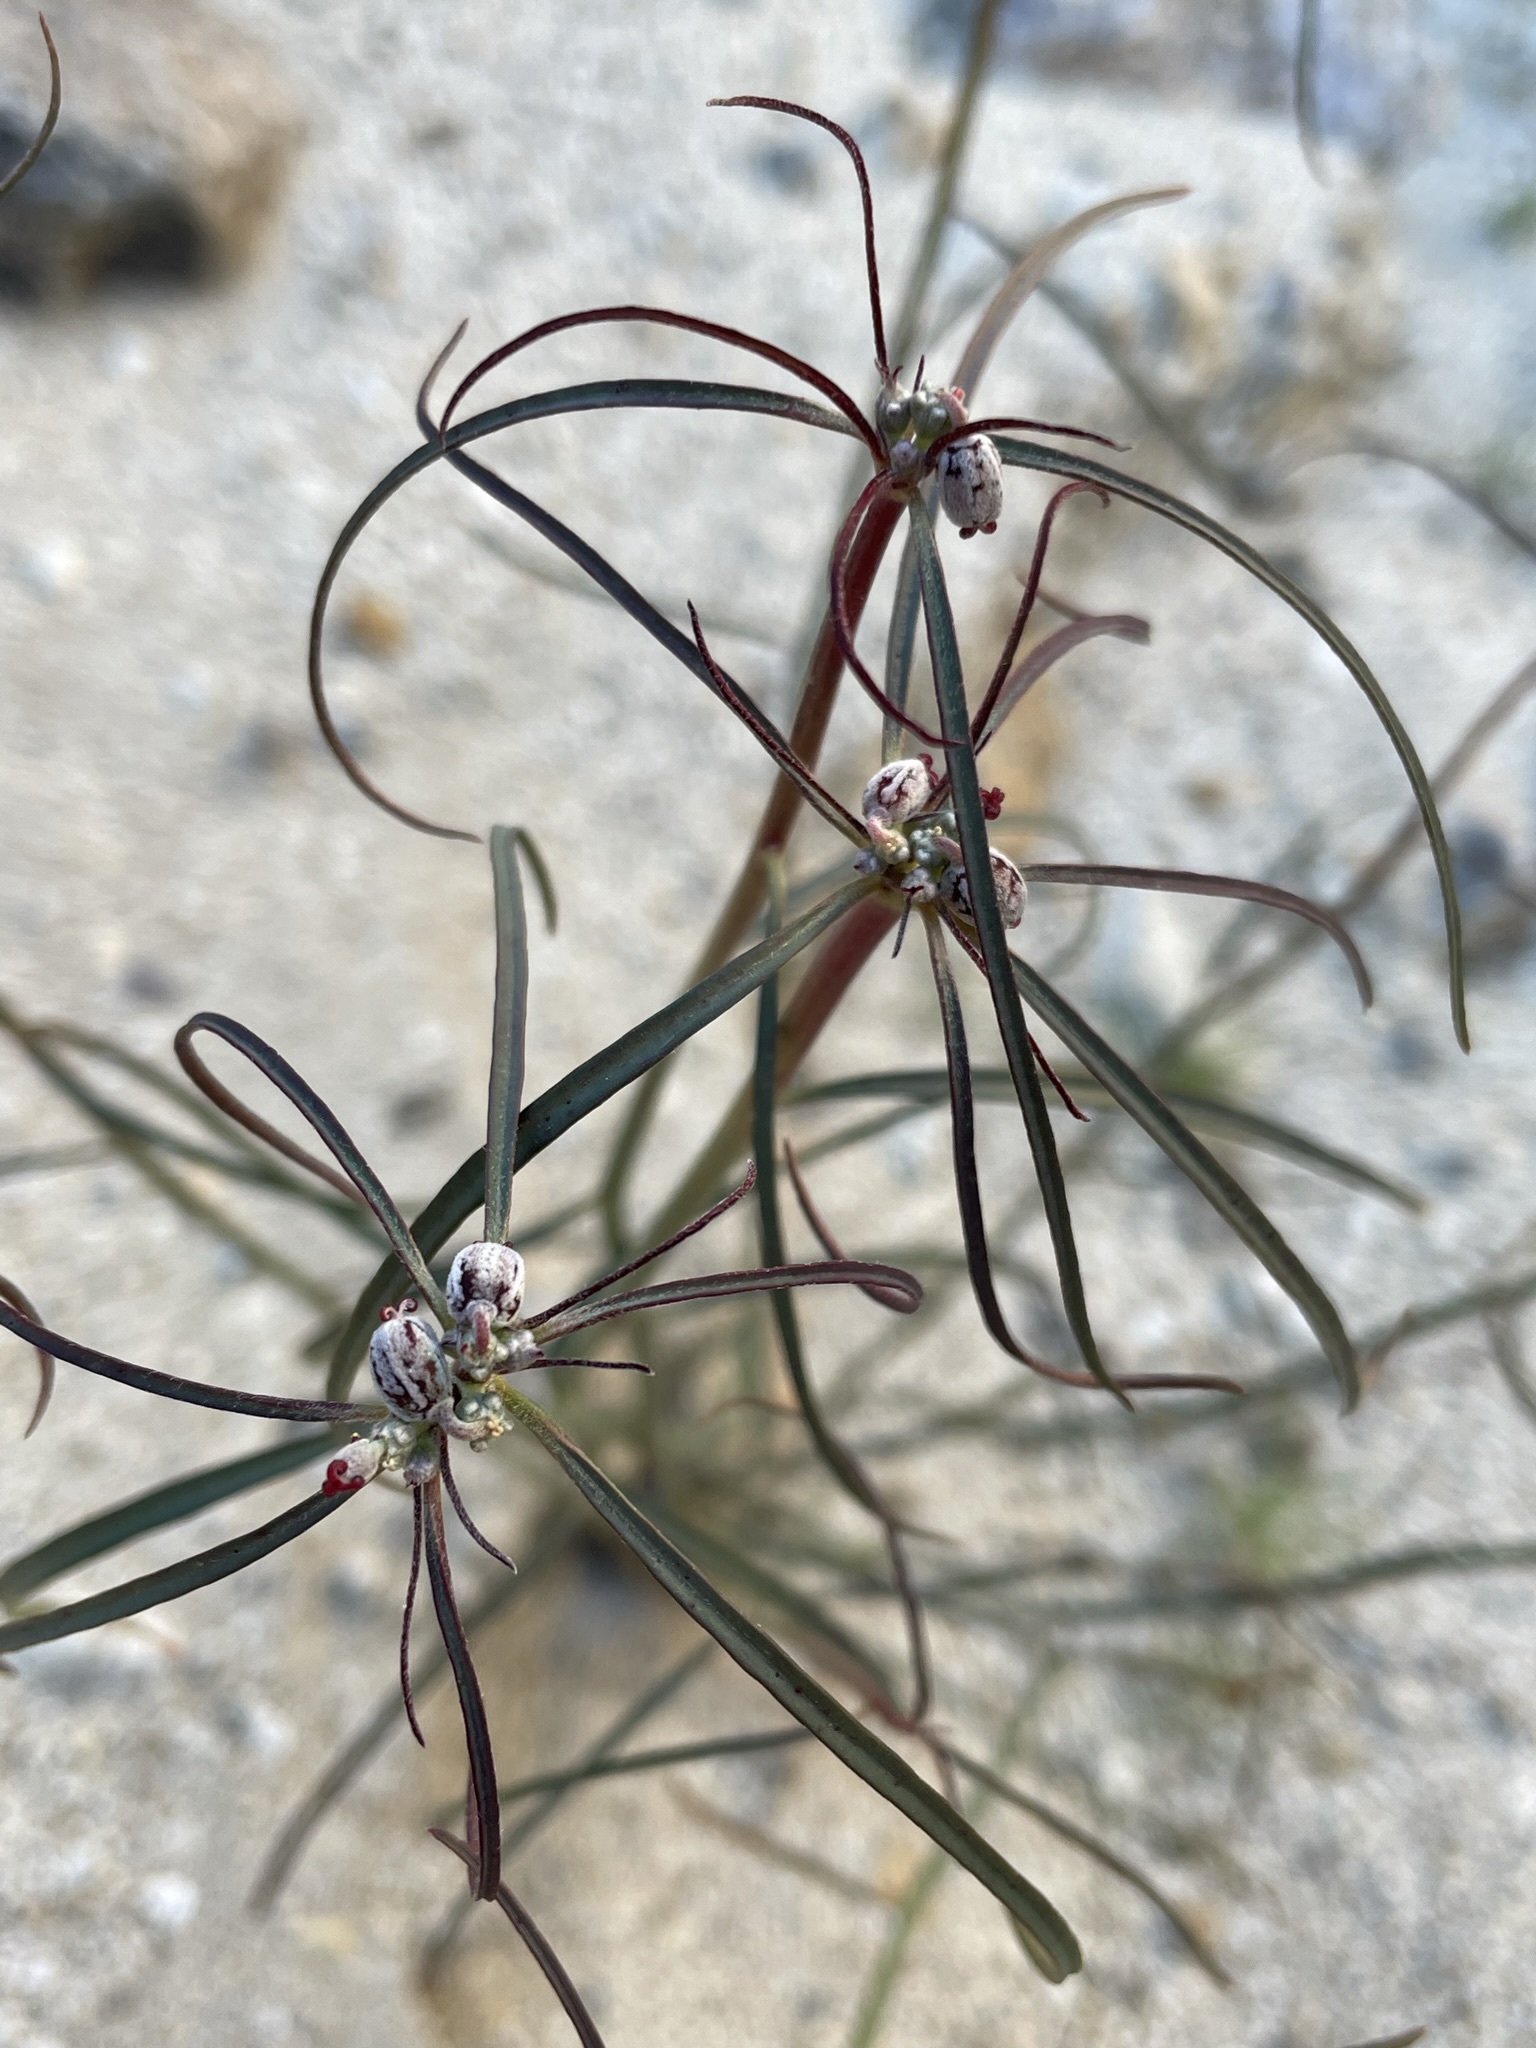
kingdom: Plantae
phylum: Tracheophyta
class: Magnoliopsida
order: Malpighiales
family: Euphorbiaceae
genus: Euphorbia
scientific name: Euphorbia eriantha
